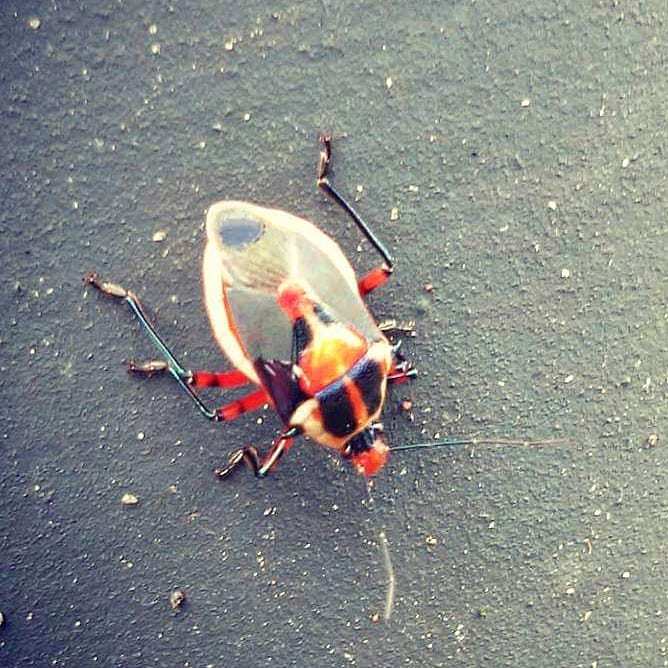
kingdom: Animalia
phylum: Arthropoda
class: Insecta
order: Hemiptera
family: Pentatomidae
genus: Euthyrhynchus
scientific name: Euthyrhynchus floridanus
